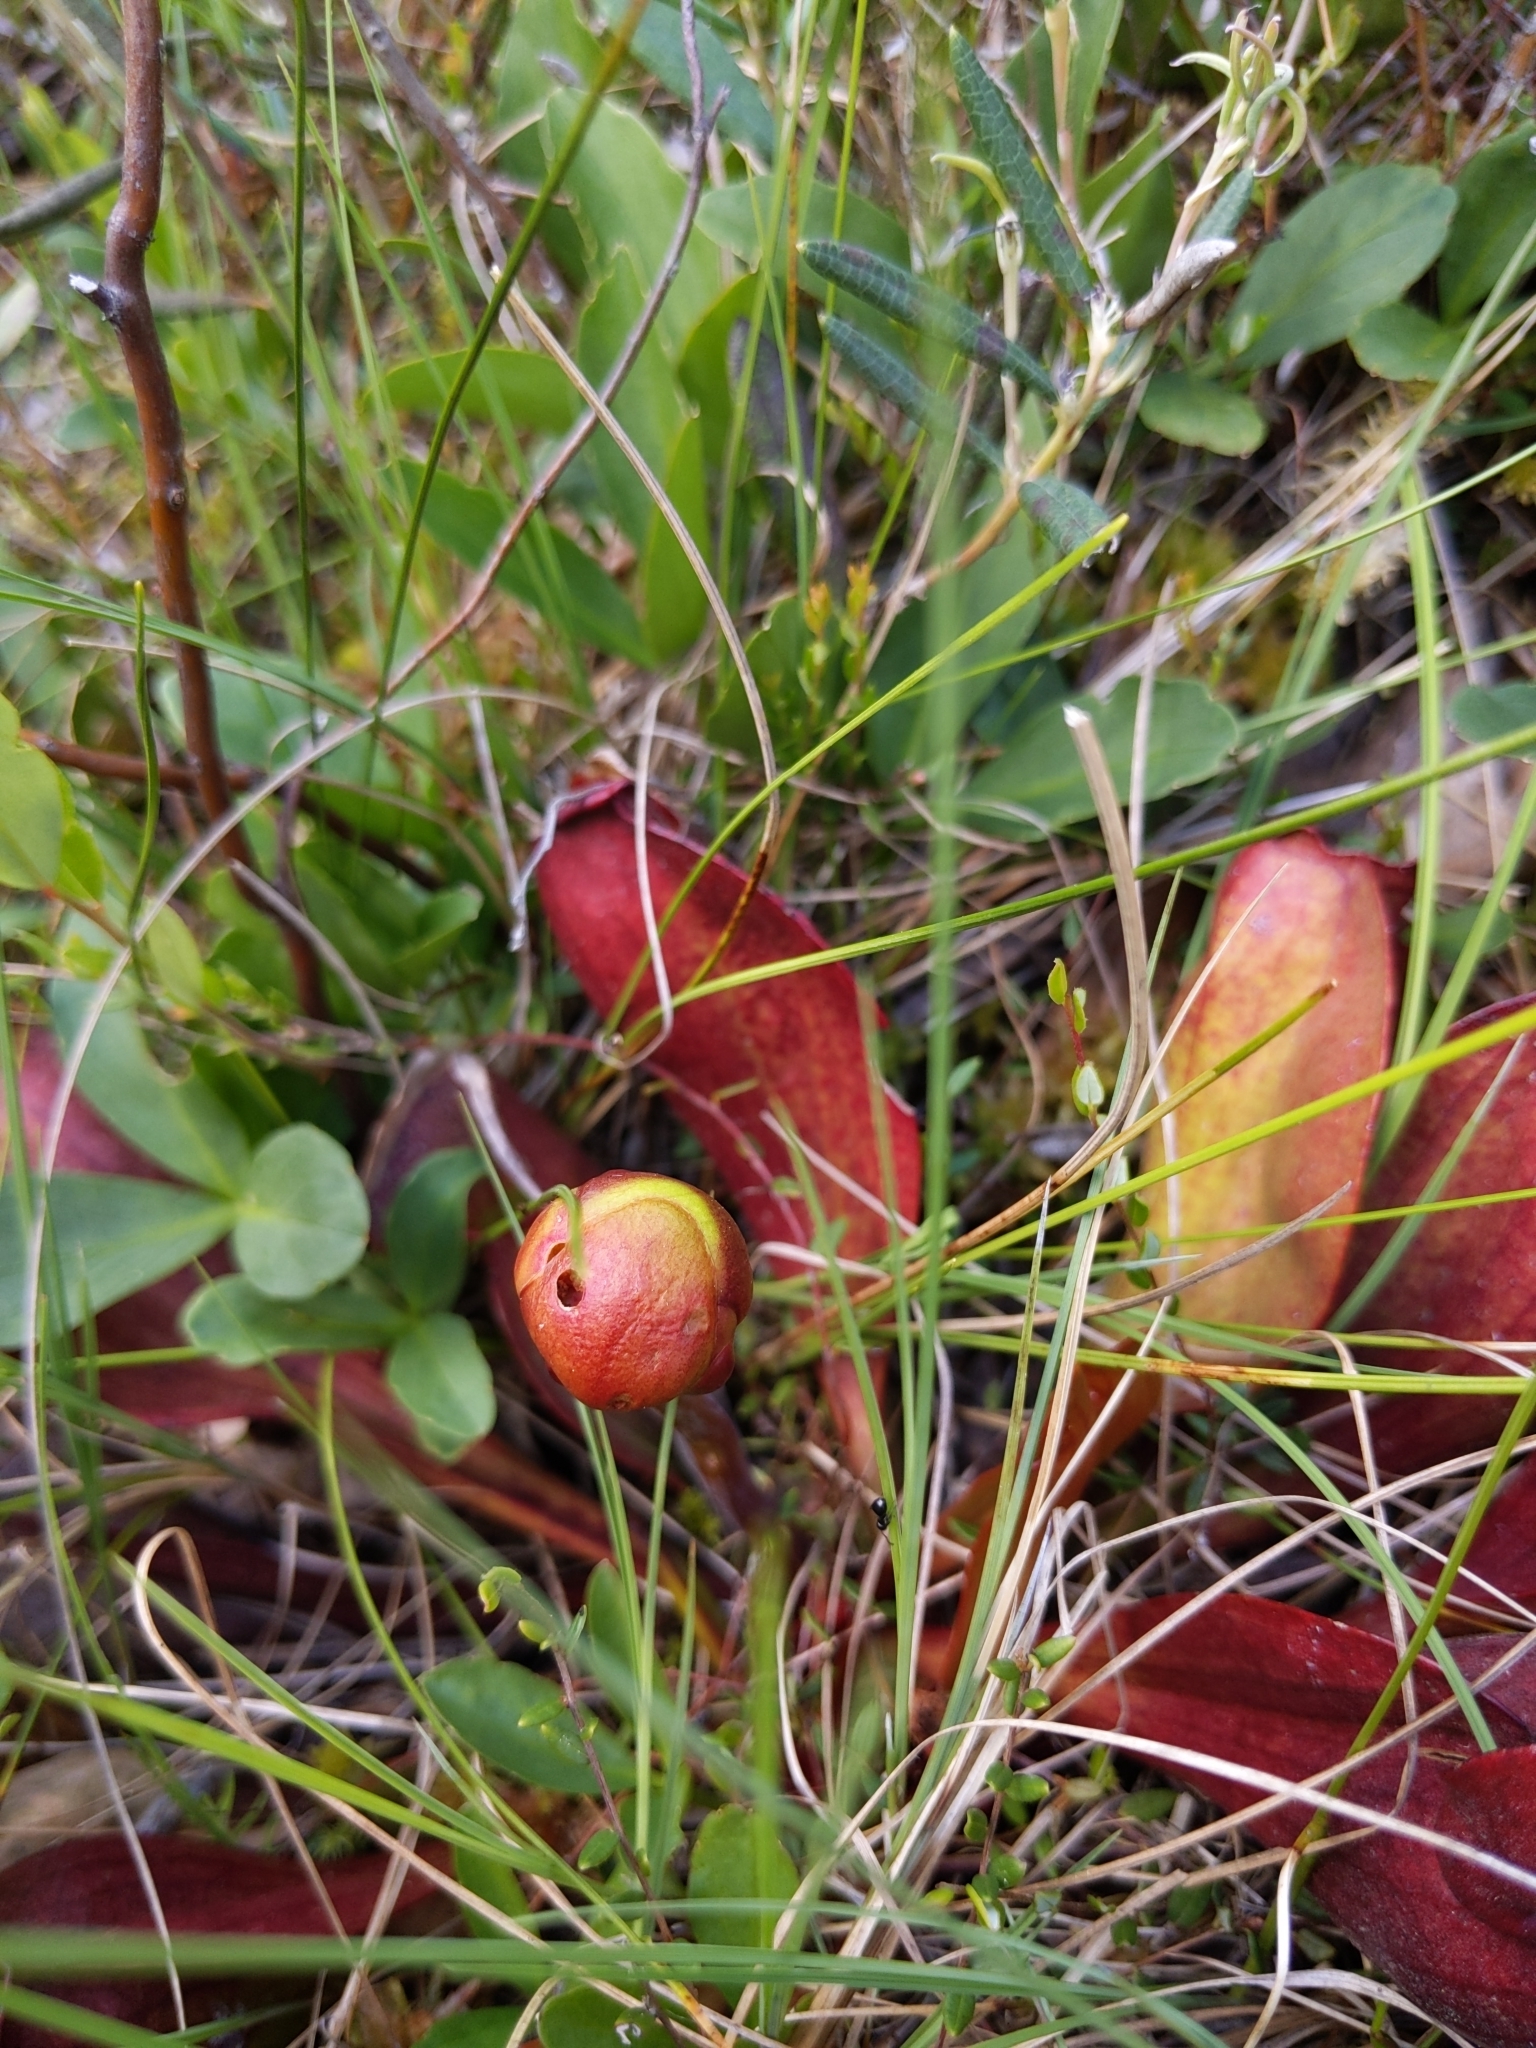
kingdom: Plantae
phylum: Tracheophyta
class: Magnoliopsida
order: Ericales
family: Sarraceniaceae
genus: Sarracenia
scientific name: Sarracenia purpurea
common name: Pitcherplant
